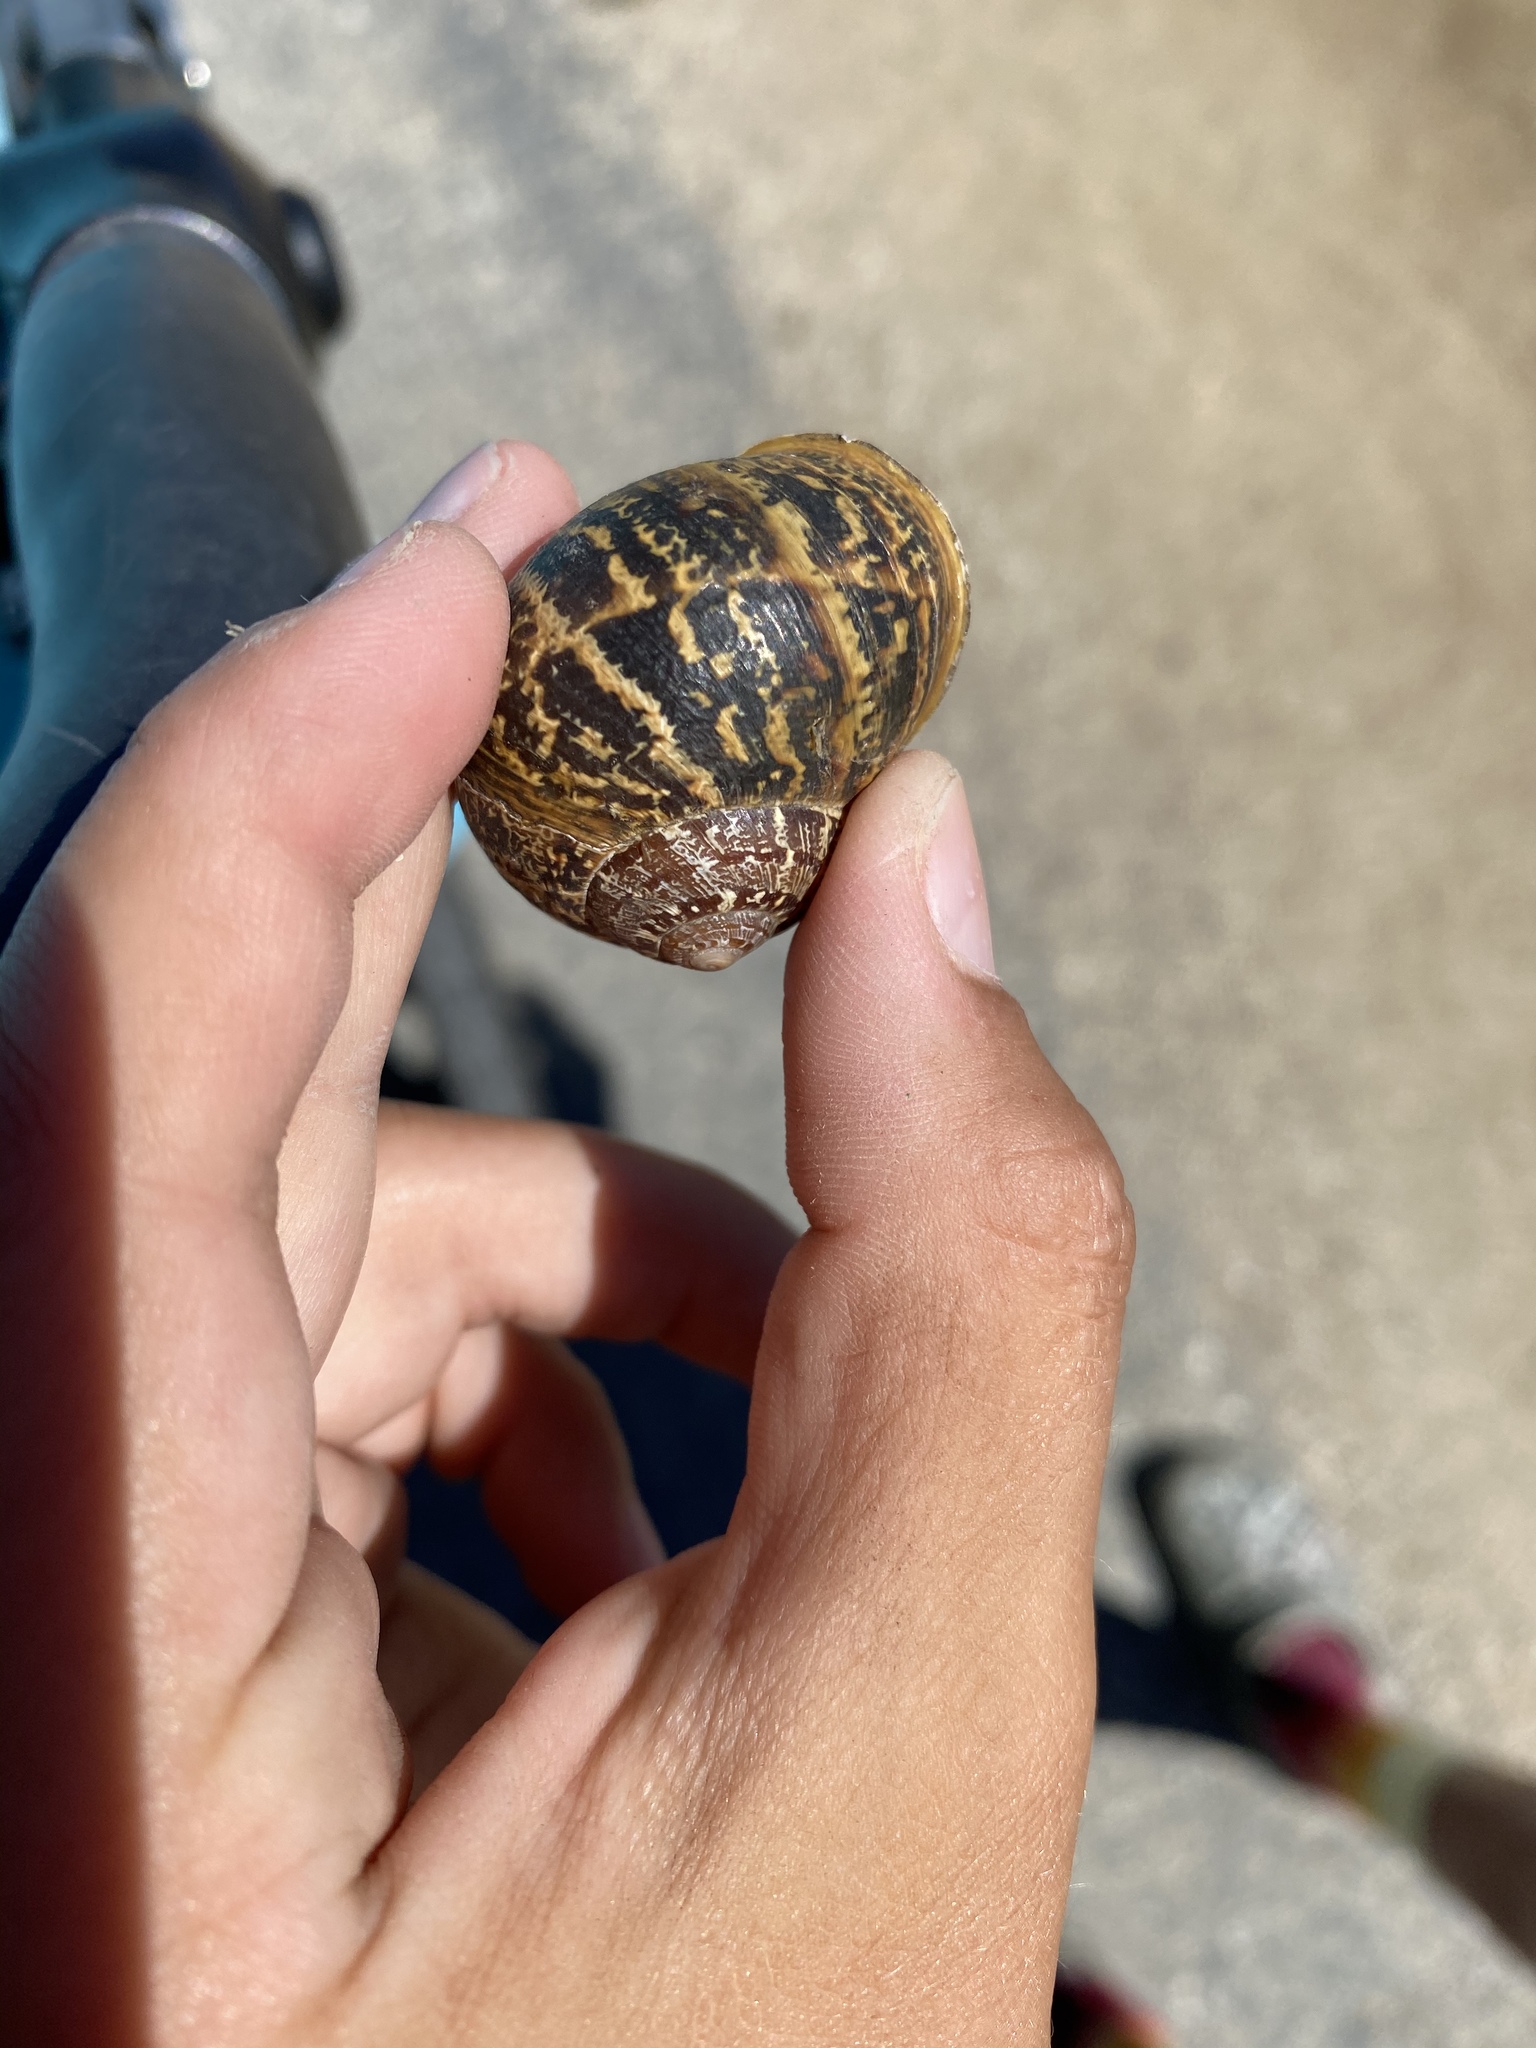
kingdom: Animalia
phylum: Mollusca
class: Gastropoda
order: Stylommatophora
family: Helicidae
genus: Cornu
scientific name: Cornu aspersum
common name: Brown garden snail
